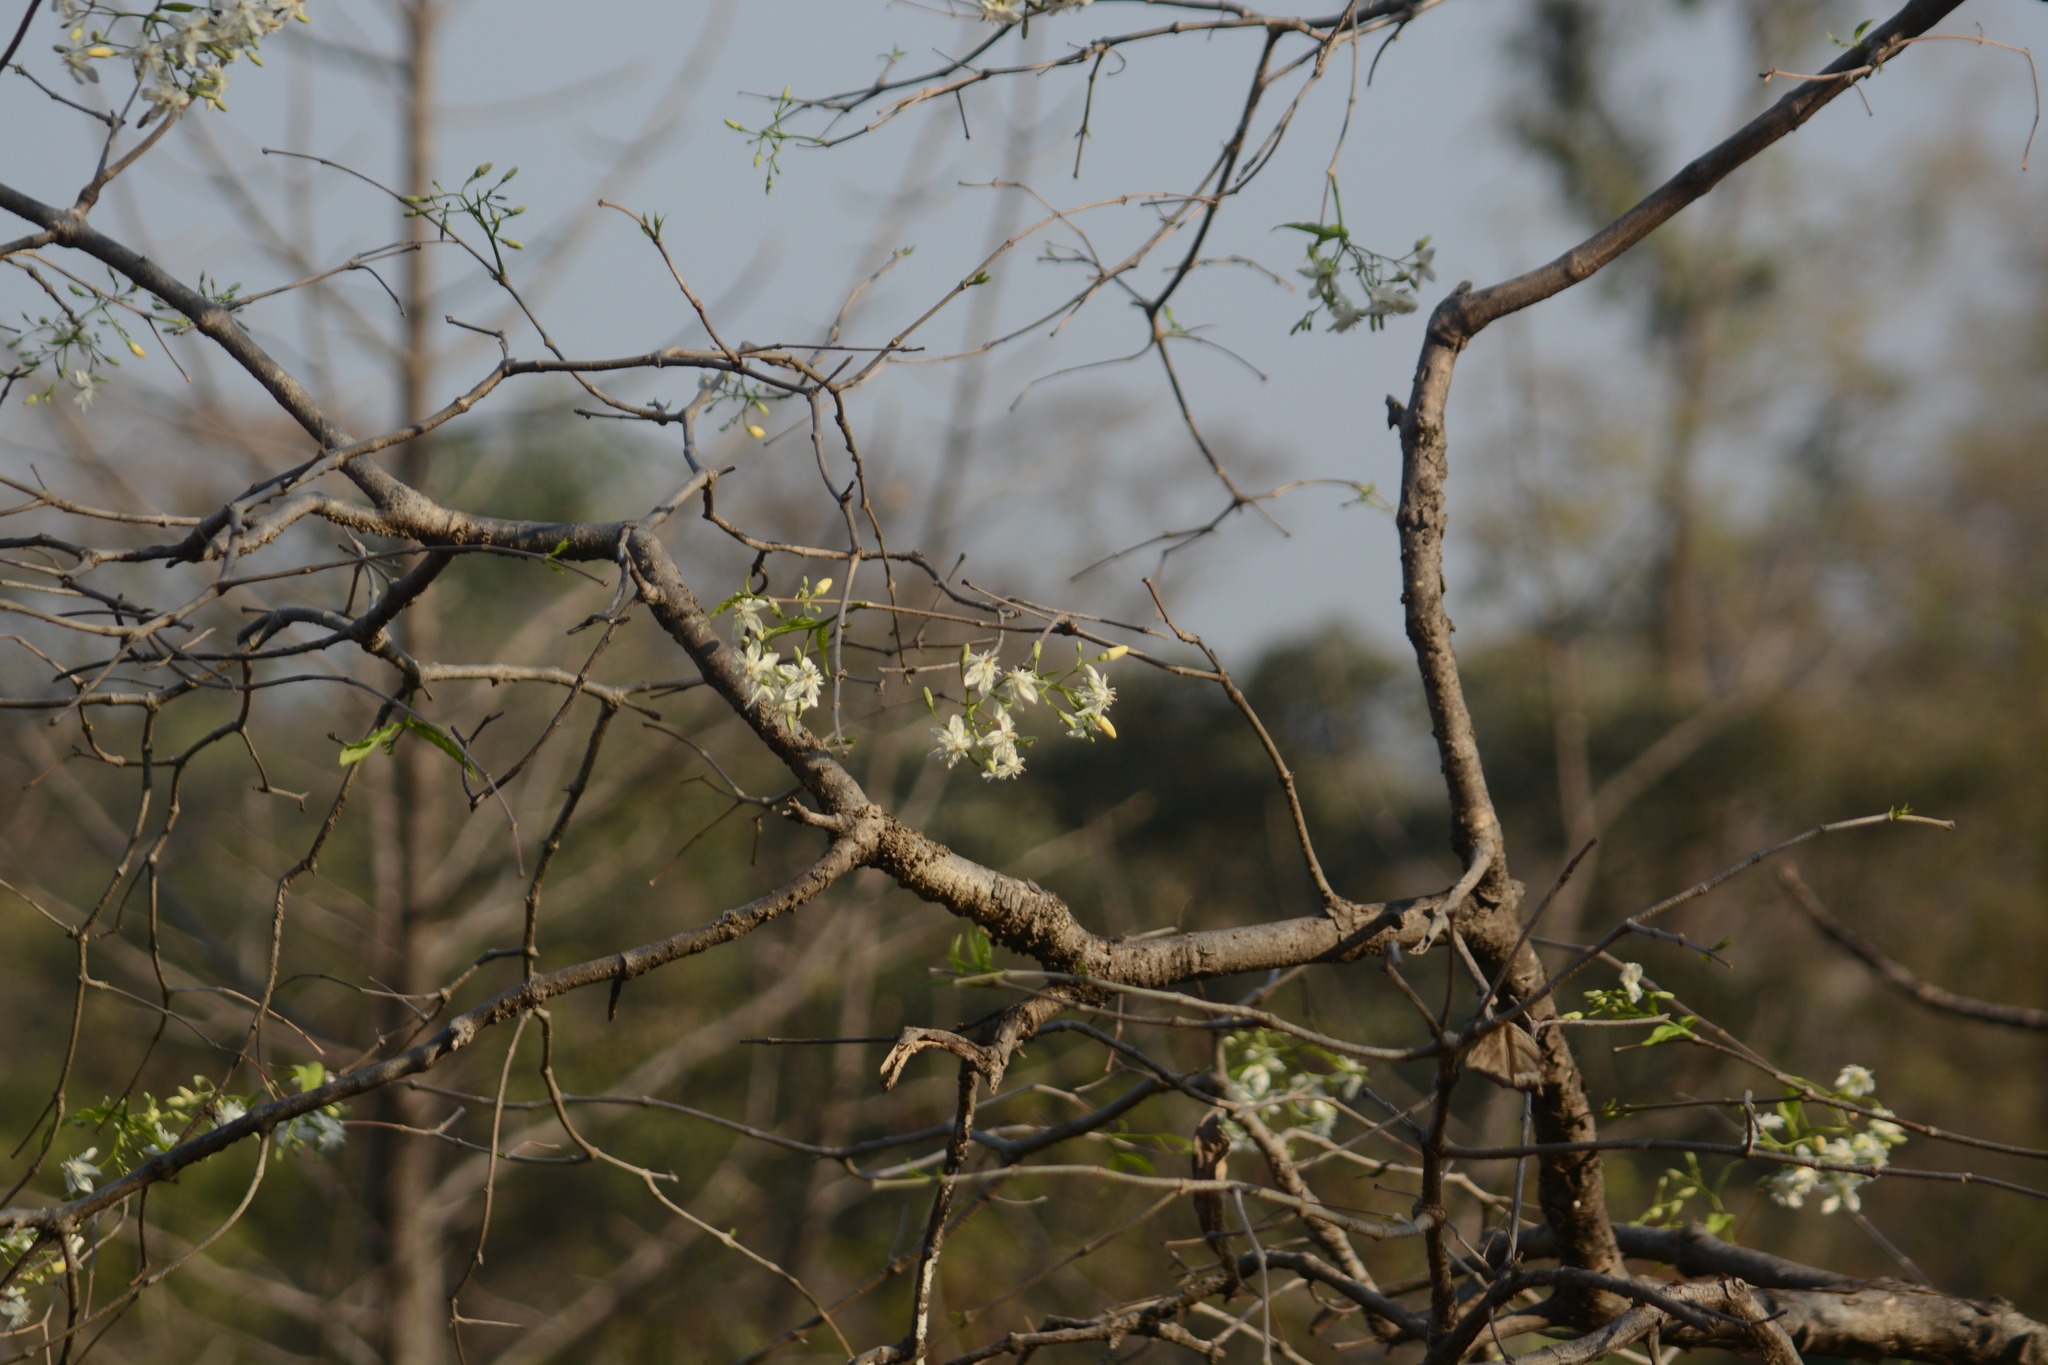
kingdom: Plantae
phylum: Tracheophyta
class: Magnoliopsida
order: Gentianales
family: Apocynaceae
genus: Wrightia
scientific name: Wrightia tinctoria
